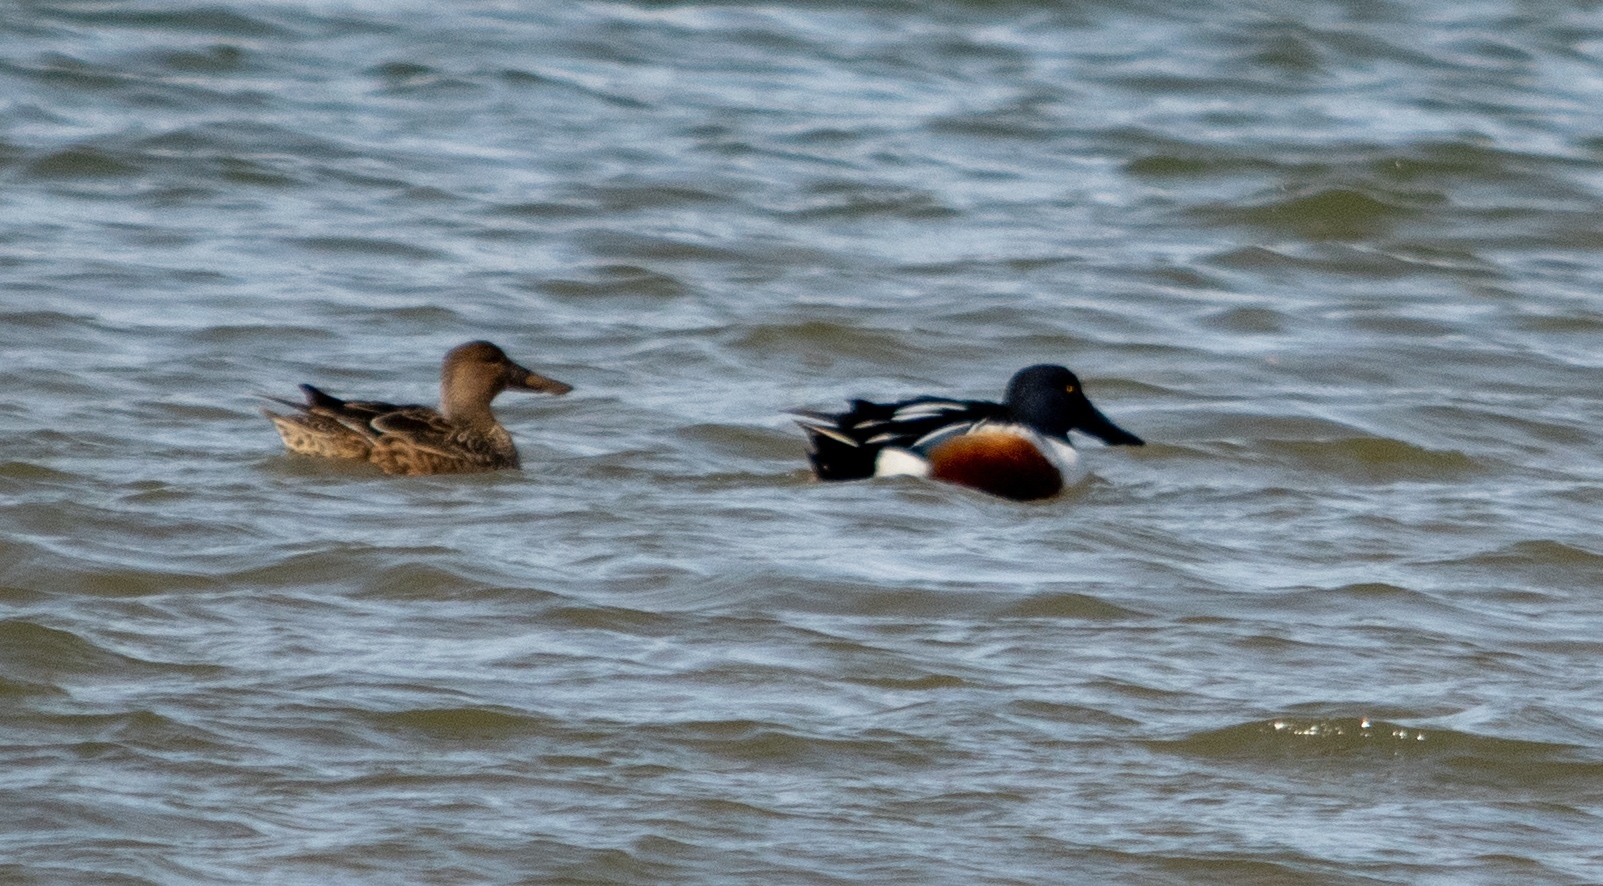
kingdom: Animalia
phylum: Chordata
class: Aves
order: Anseriformes
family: Anatidae
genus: Spatula
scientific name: Spatula clypeata
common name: Northern shoveler
